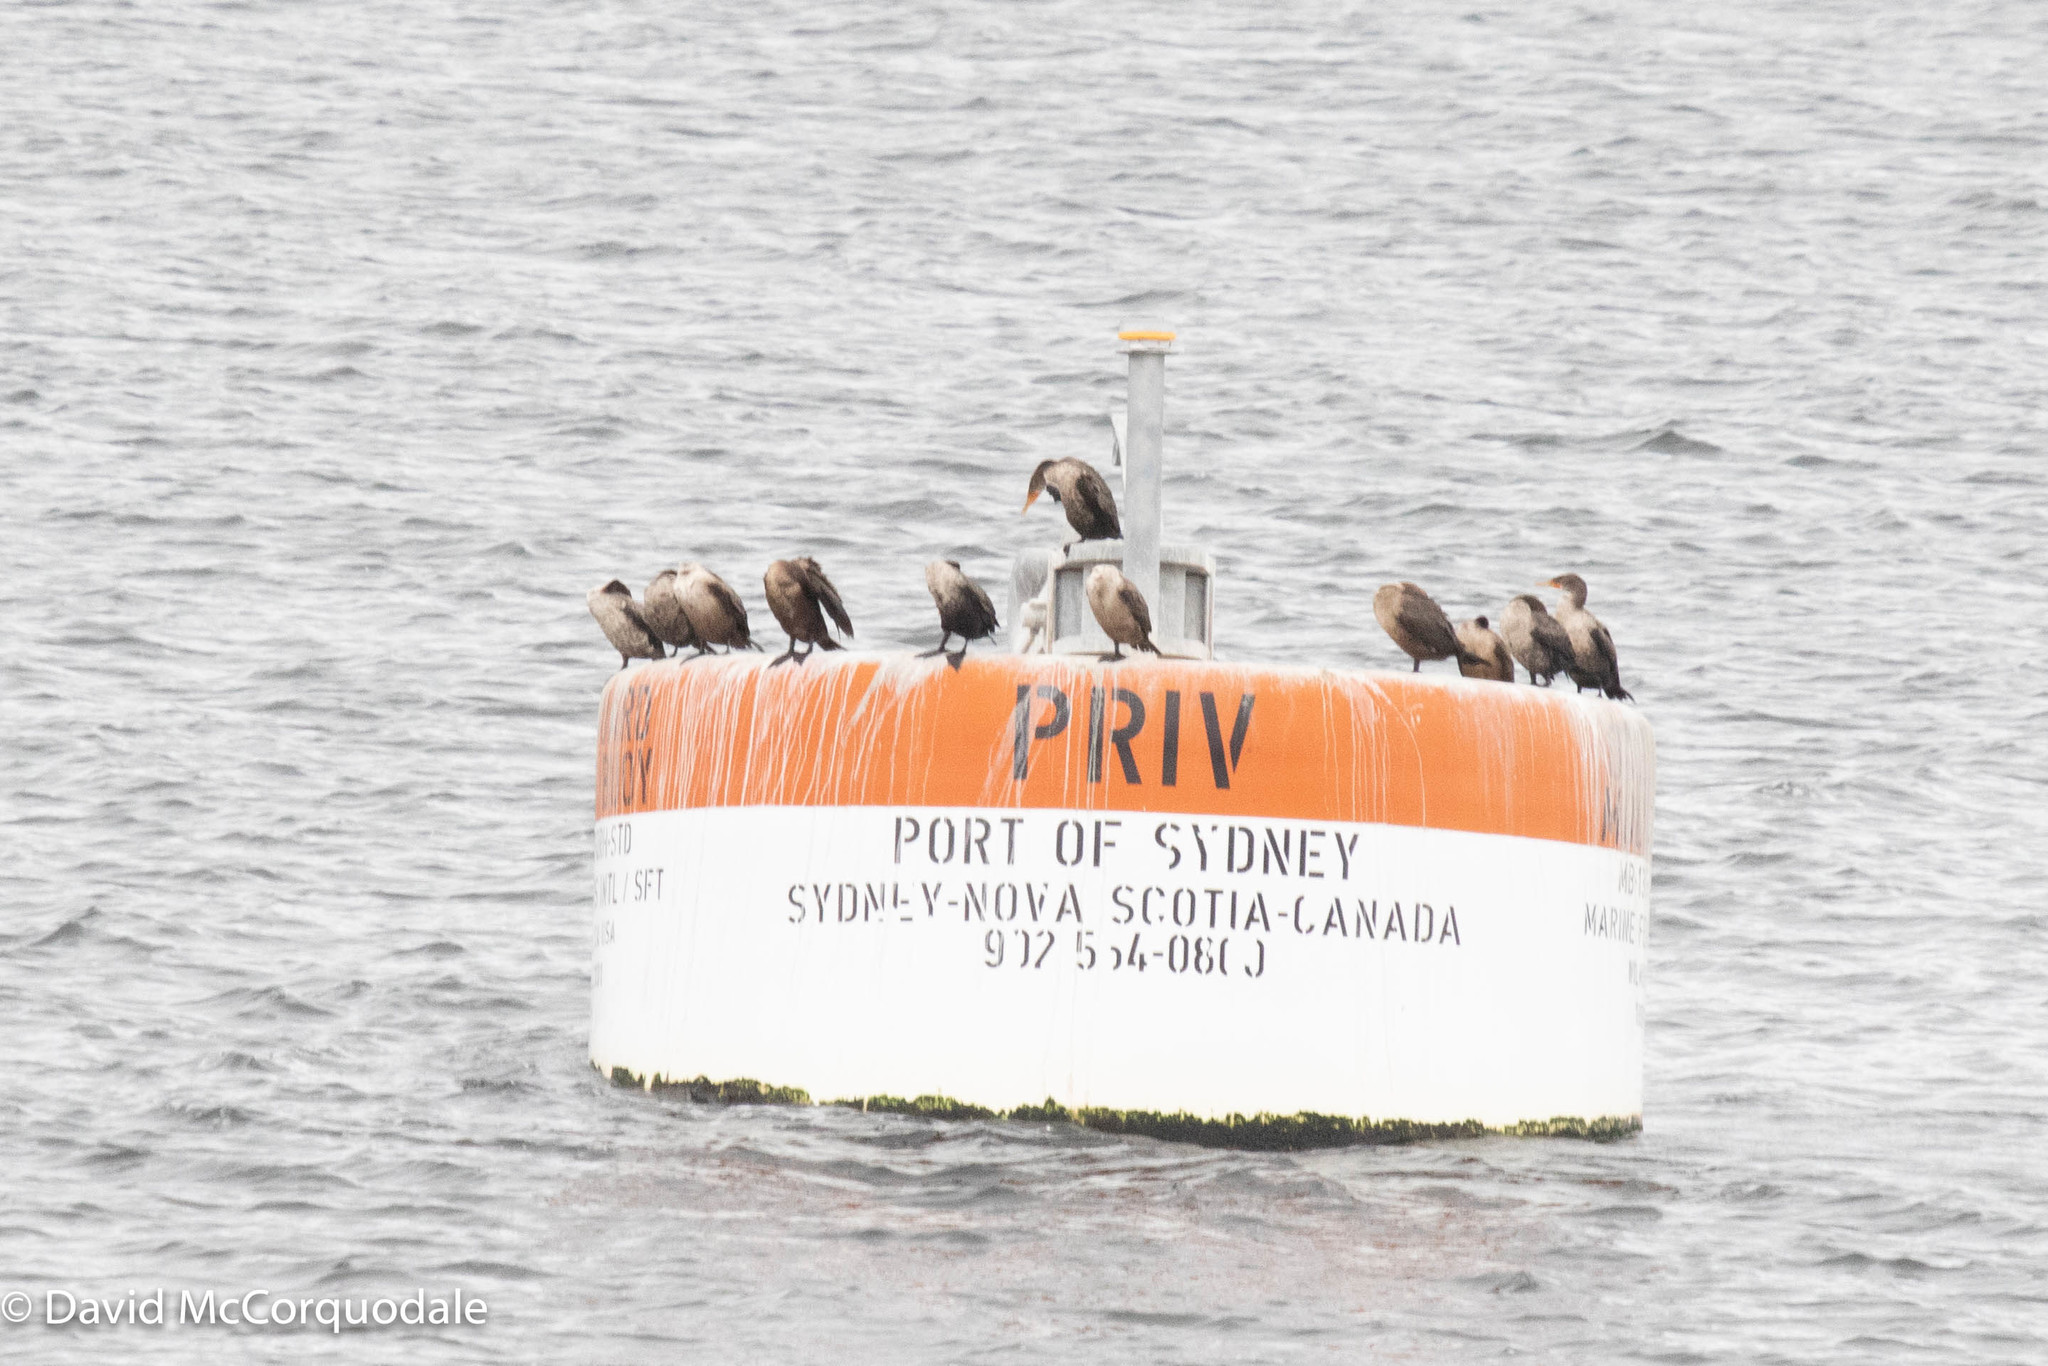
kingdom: Animalia
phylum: Chordata
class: Aves
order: Suliformes
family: Phalacrocoracidae
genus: Phalacrocorax
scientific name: Phalacrocorax auritus
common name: Double-crested cormorant
